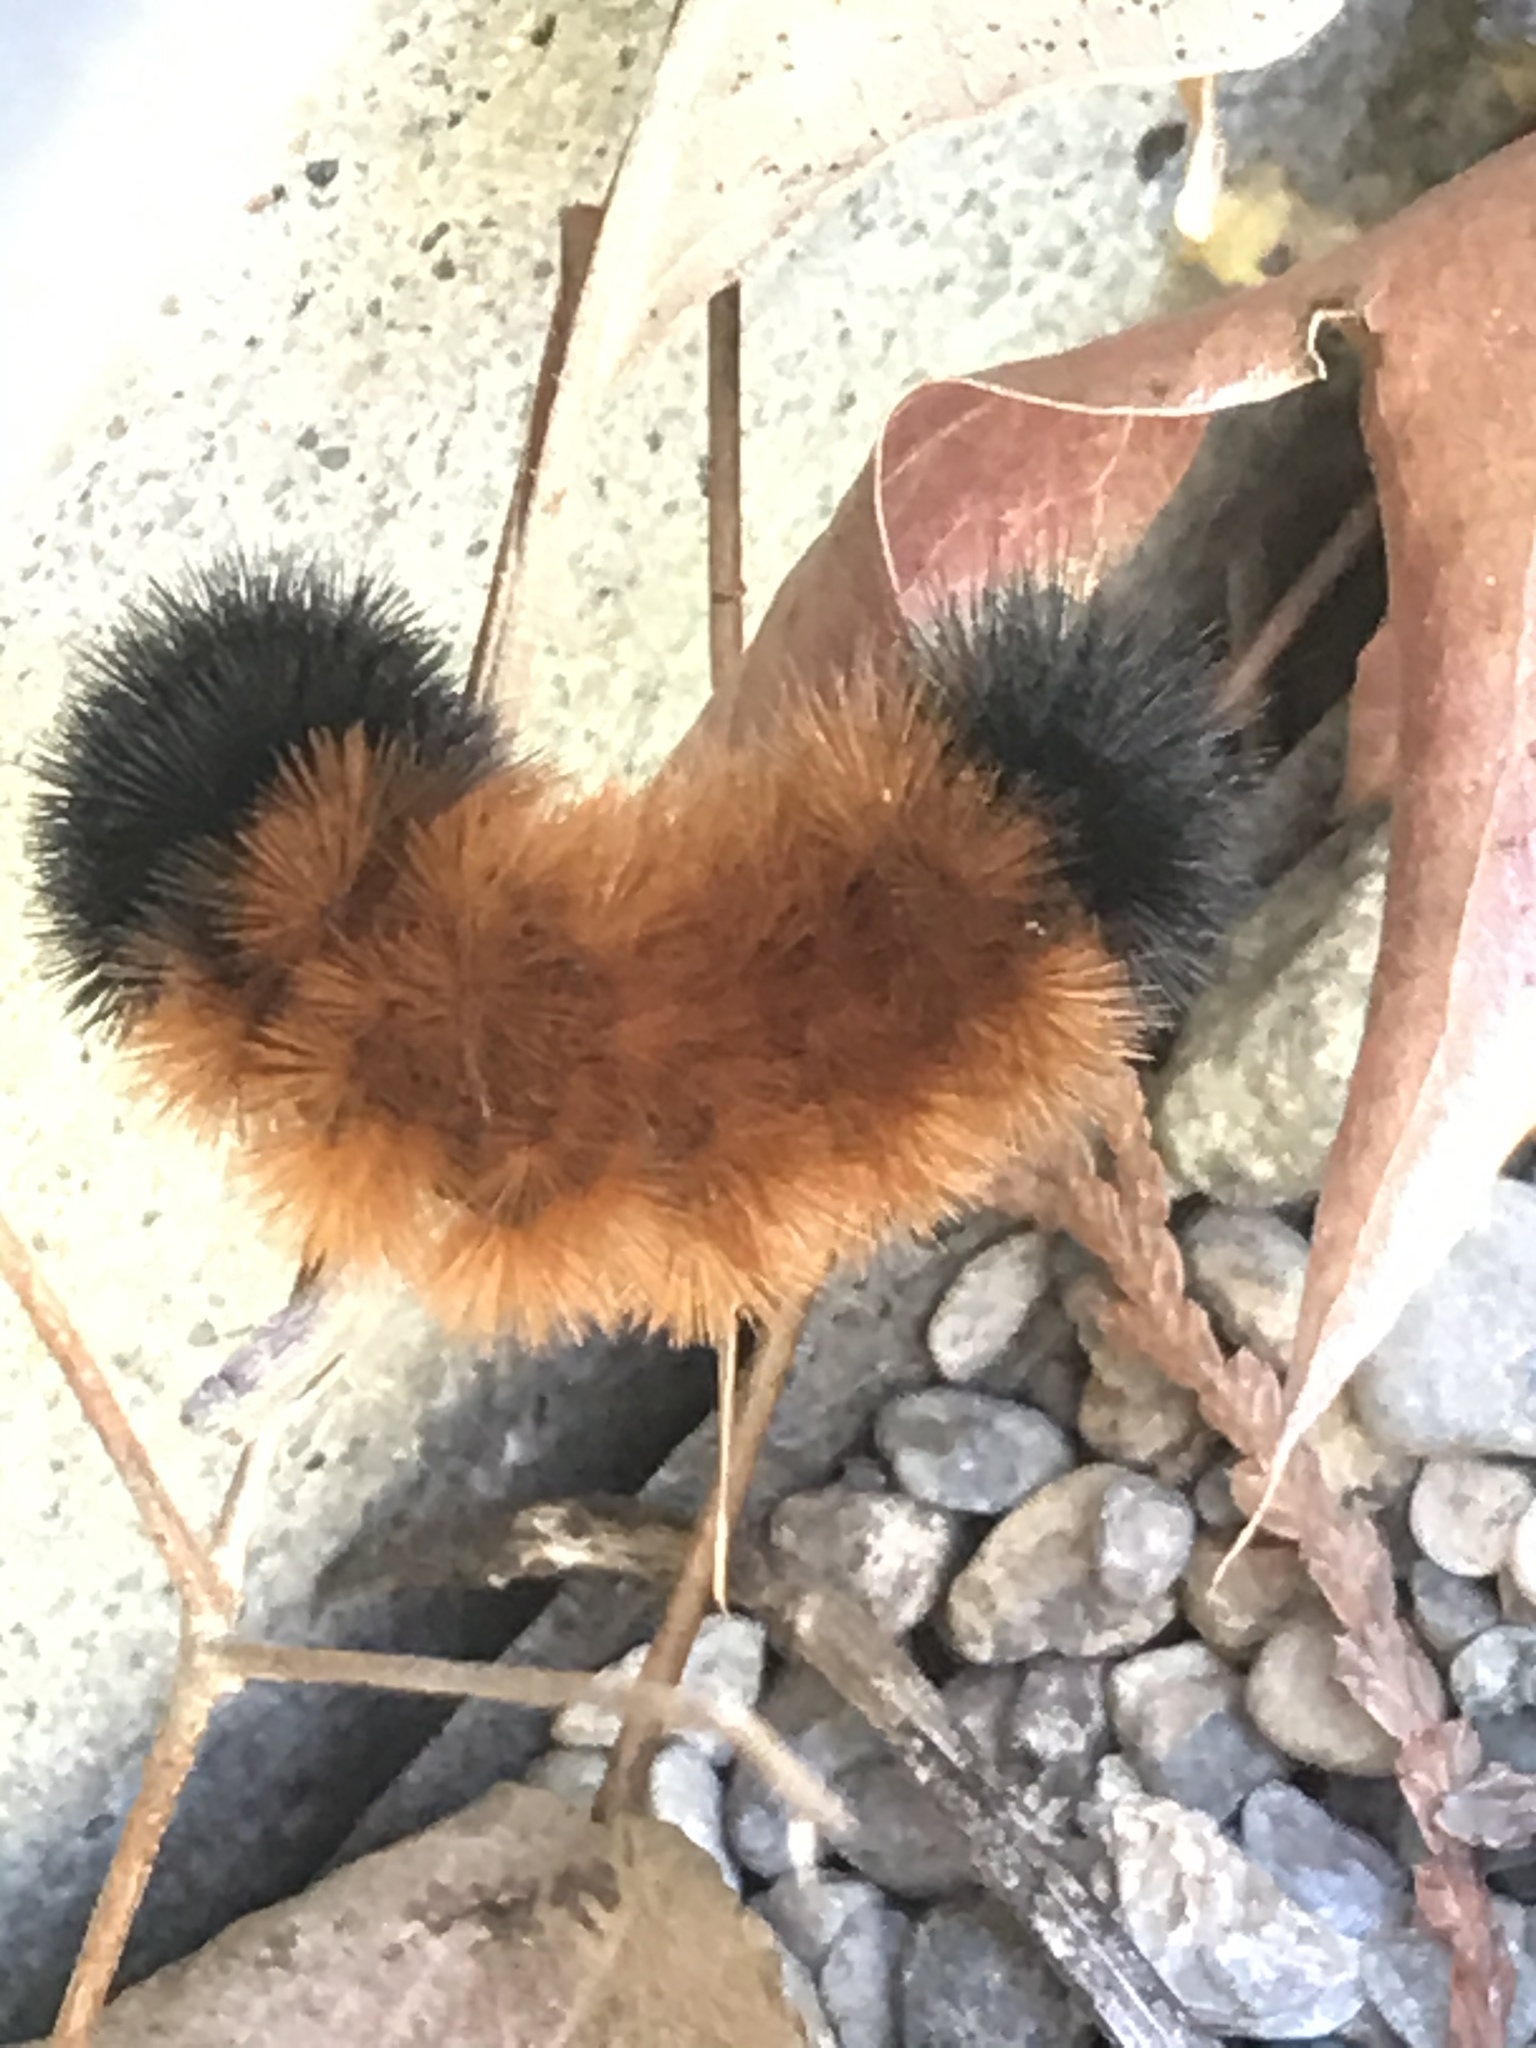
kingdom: Animalia
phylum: Arthropoda
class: Insecta
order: Lepidoptera
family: Erebidae
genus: Pyrrharctia
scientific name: Pyrrharctia isabella
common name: Isabella tiger moth
